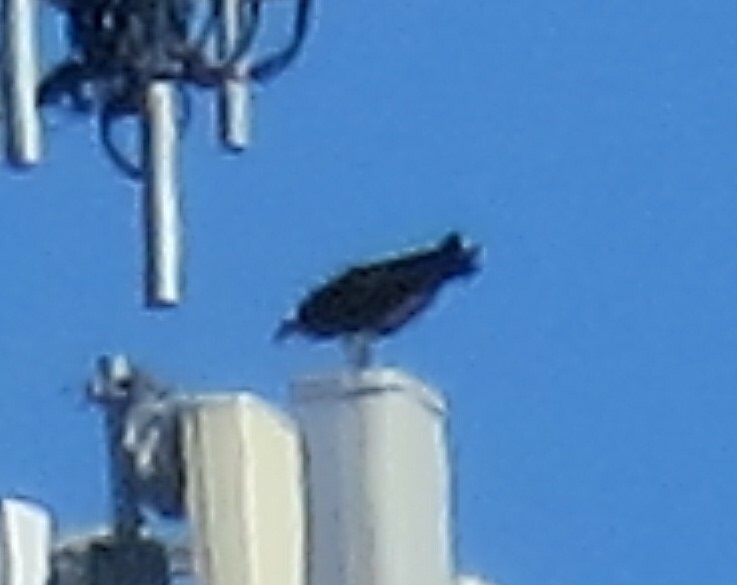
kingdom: Animalia
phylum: Chordata
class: Aves
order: Accipitriformes
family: Pandionidae
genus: Pandion
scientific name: Pandion haliaetus
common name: Osprey
